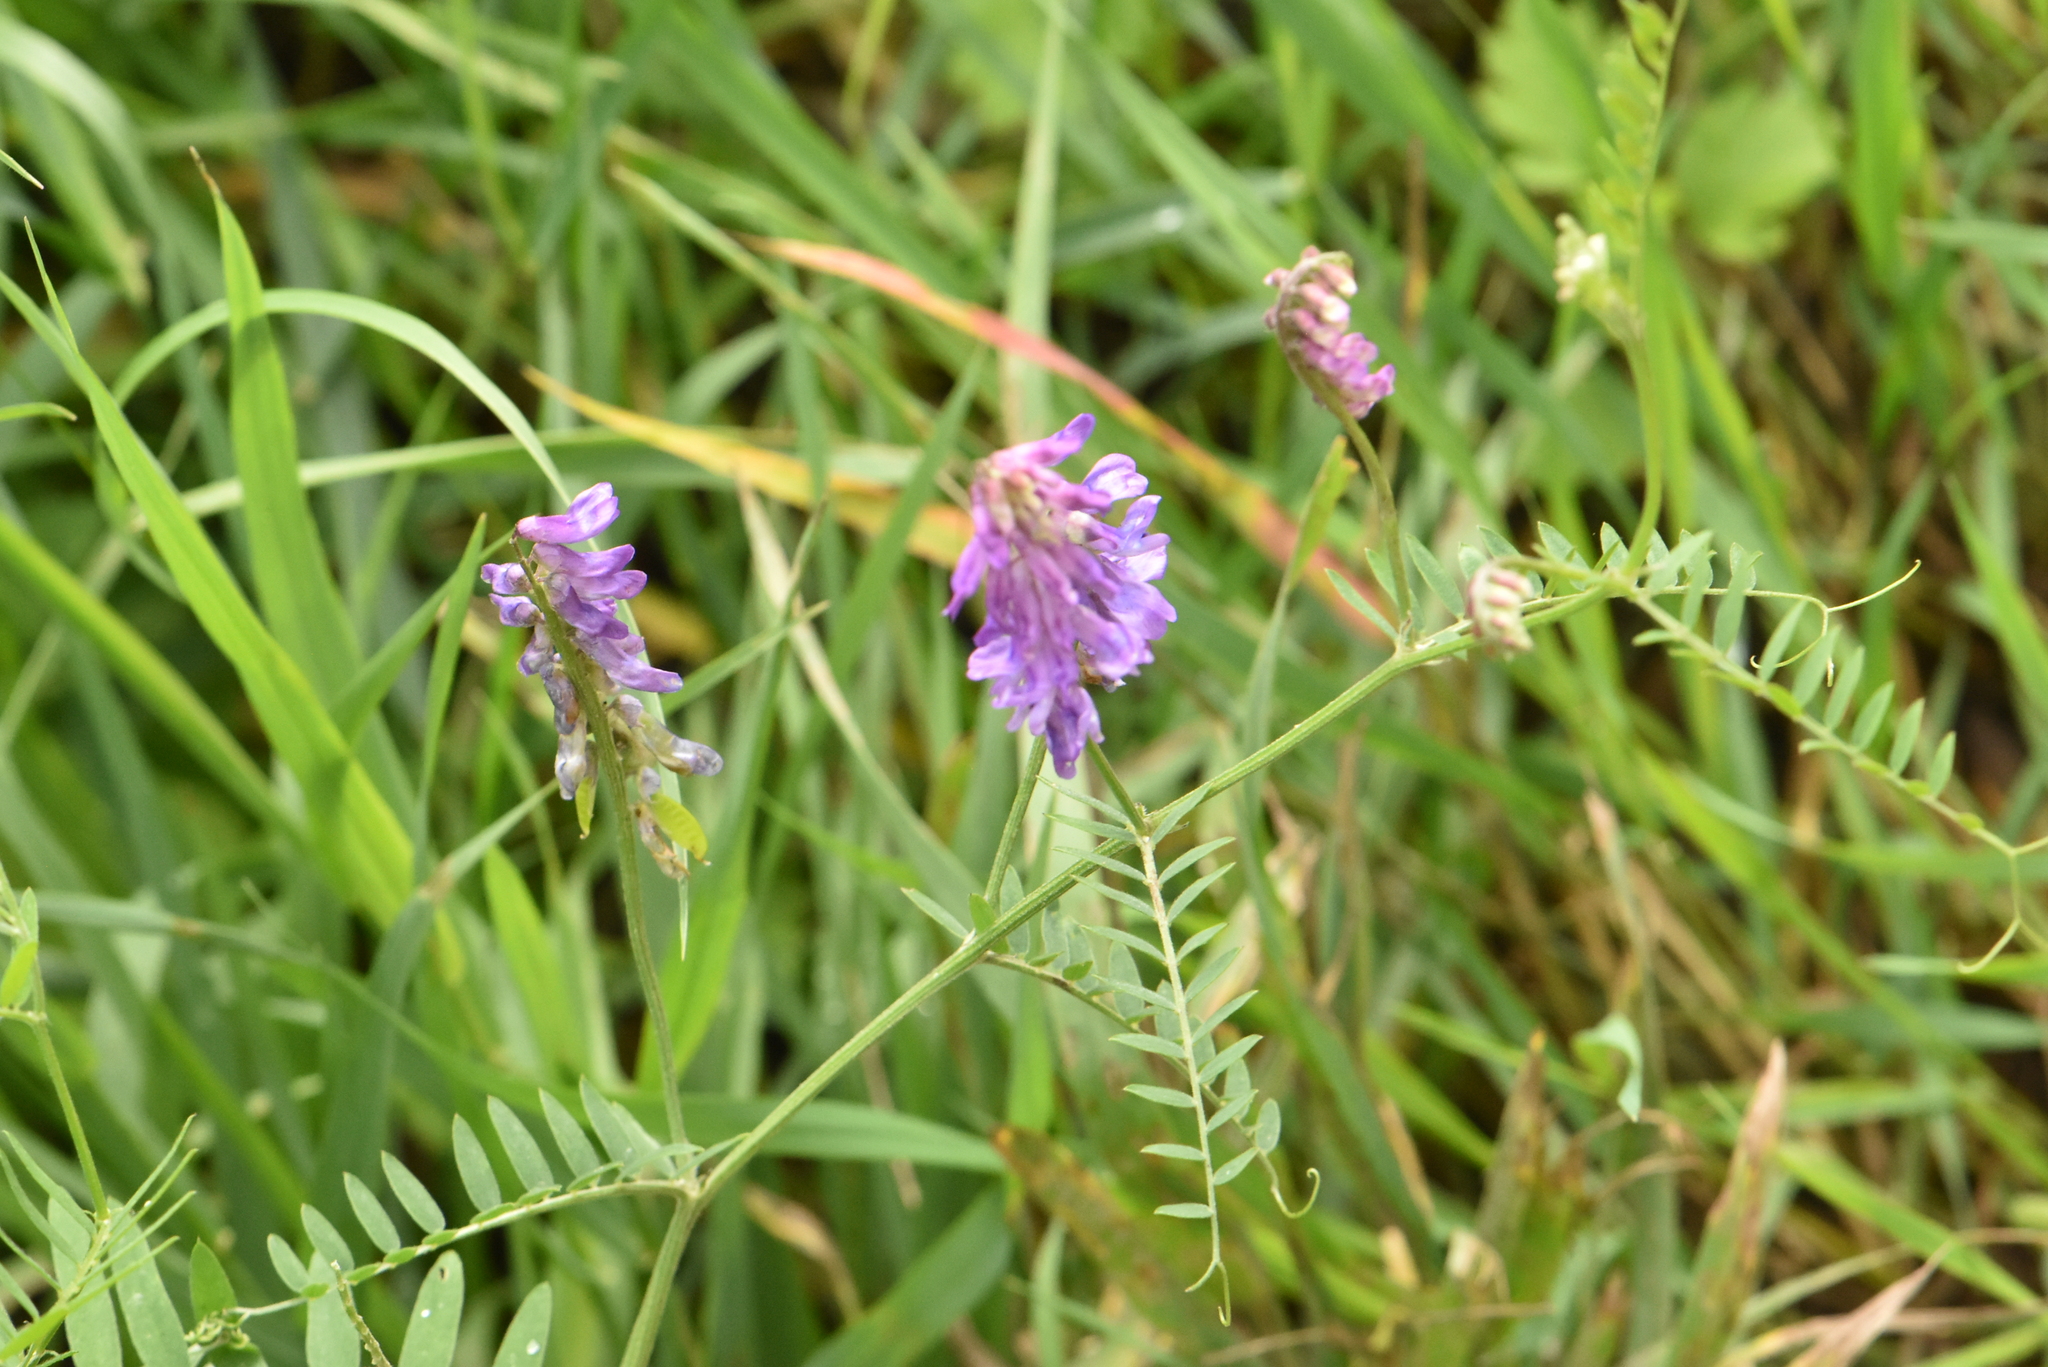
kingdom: Plantae
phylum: Tracheophyta
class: Magnoliopsida
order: Fabales
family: Fabaceae
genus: Vicia
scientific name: Vicia cracca
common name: Bird vetch
